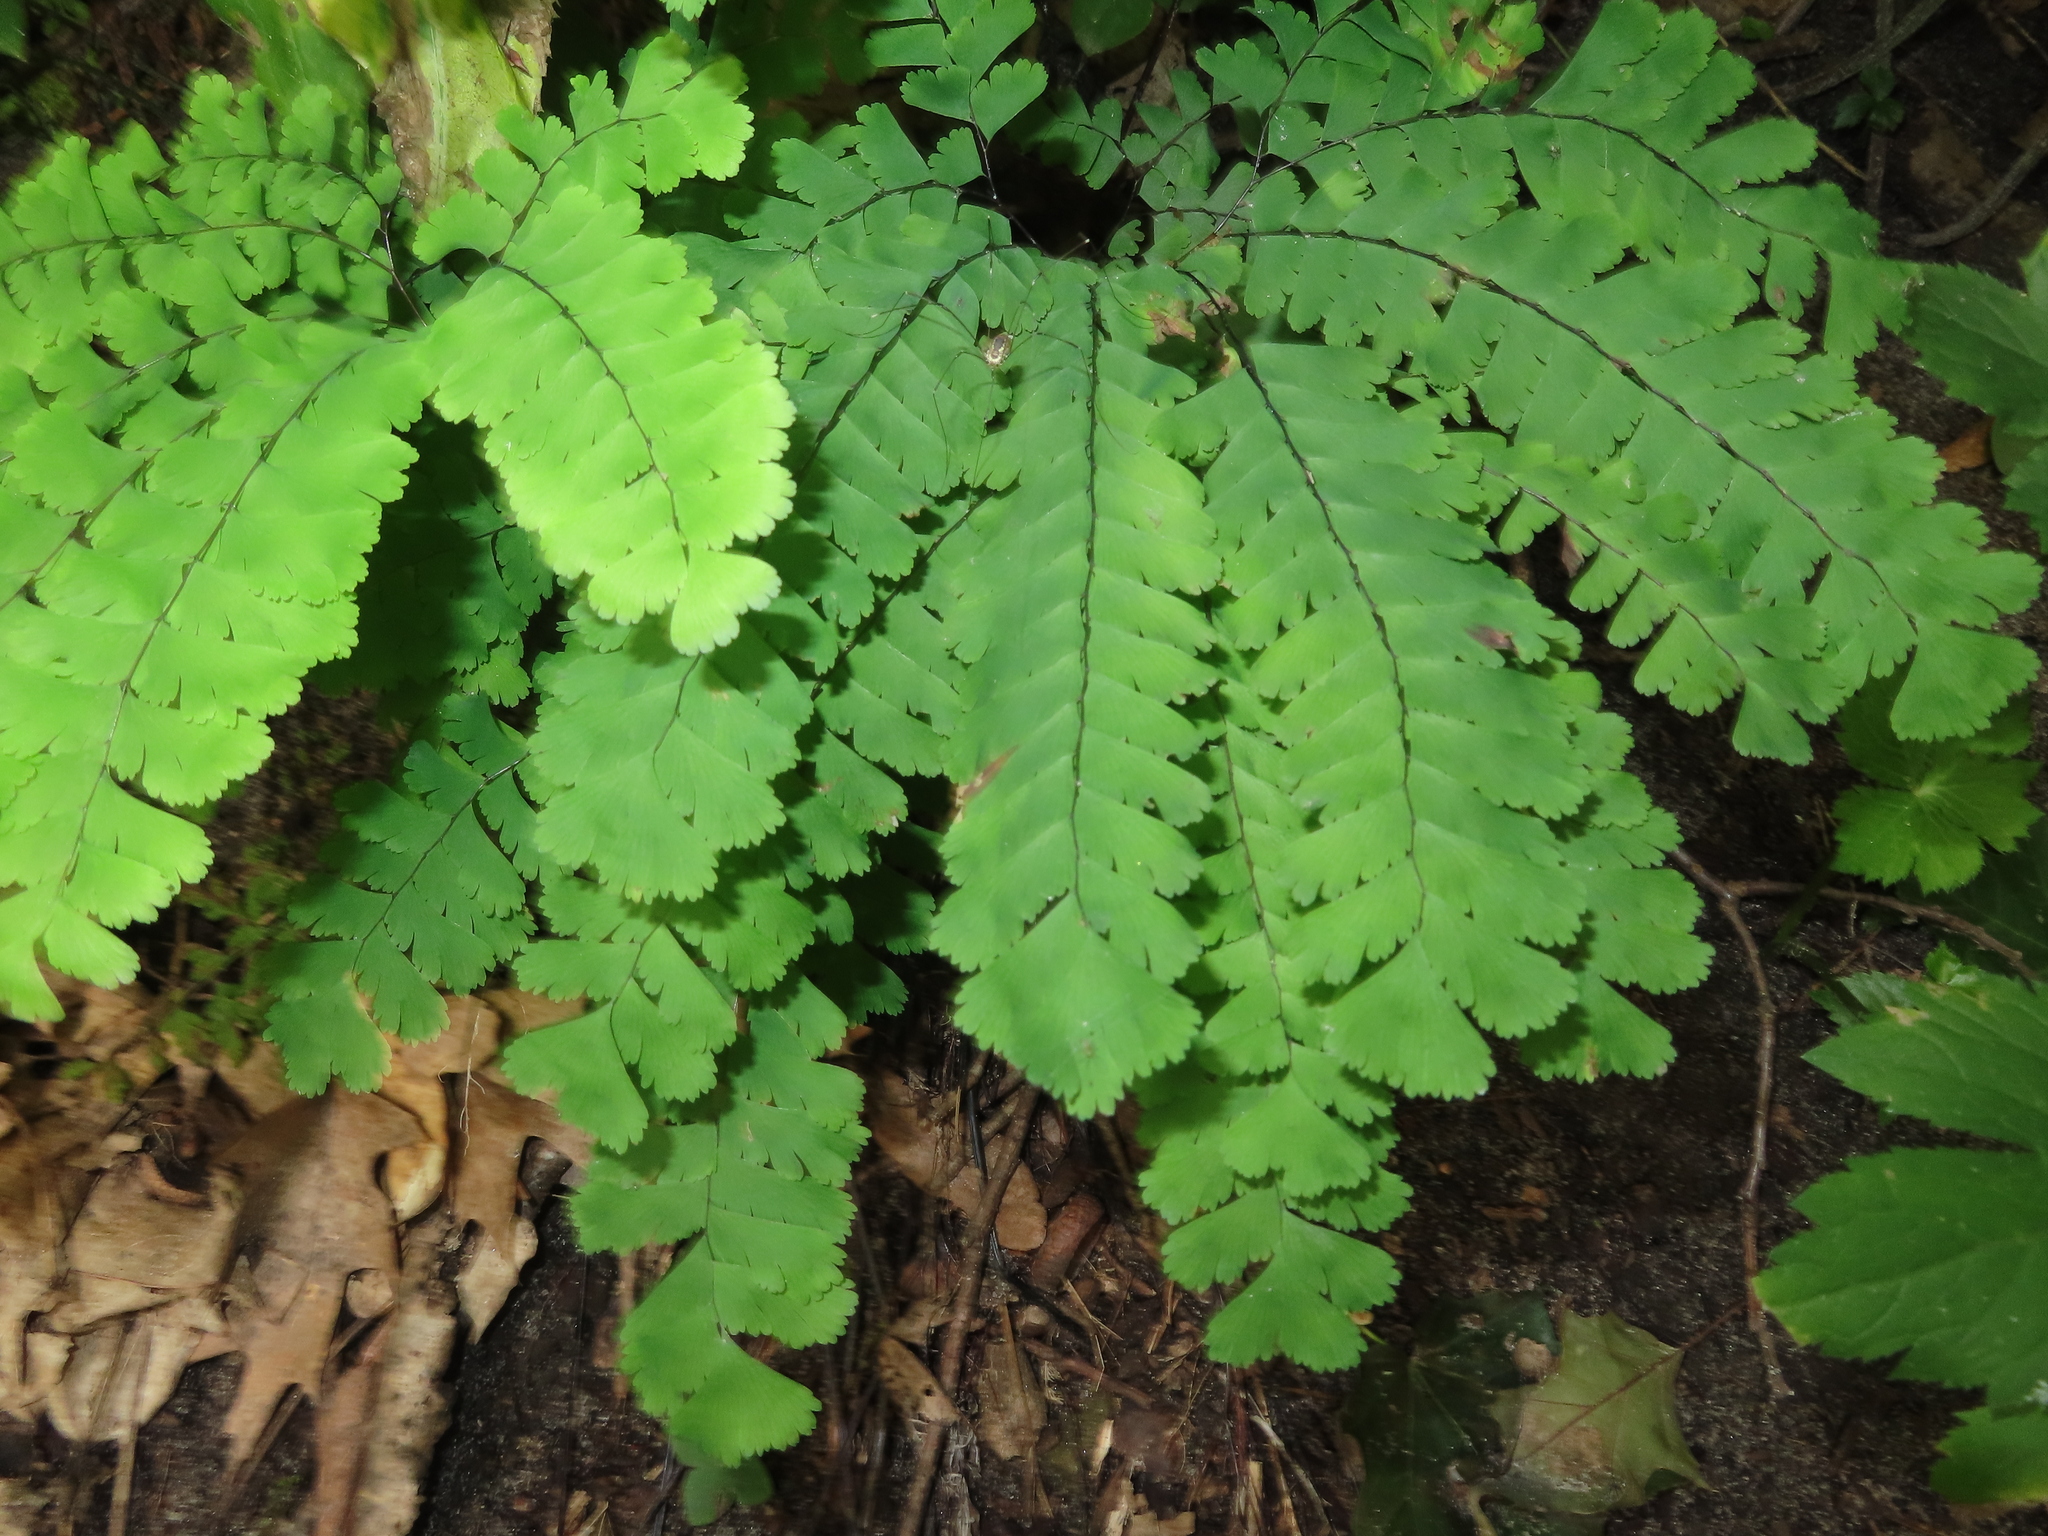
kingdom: Plantae
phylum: Tracheophyta
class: Polypodiopsida
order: Polypodiales
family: Pteridaceae
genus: Adiantum
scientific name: Adiantum pedatum
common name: Five-finger fern
